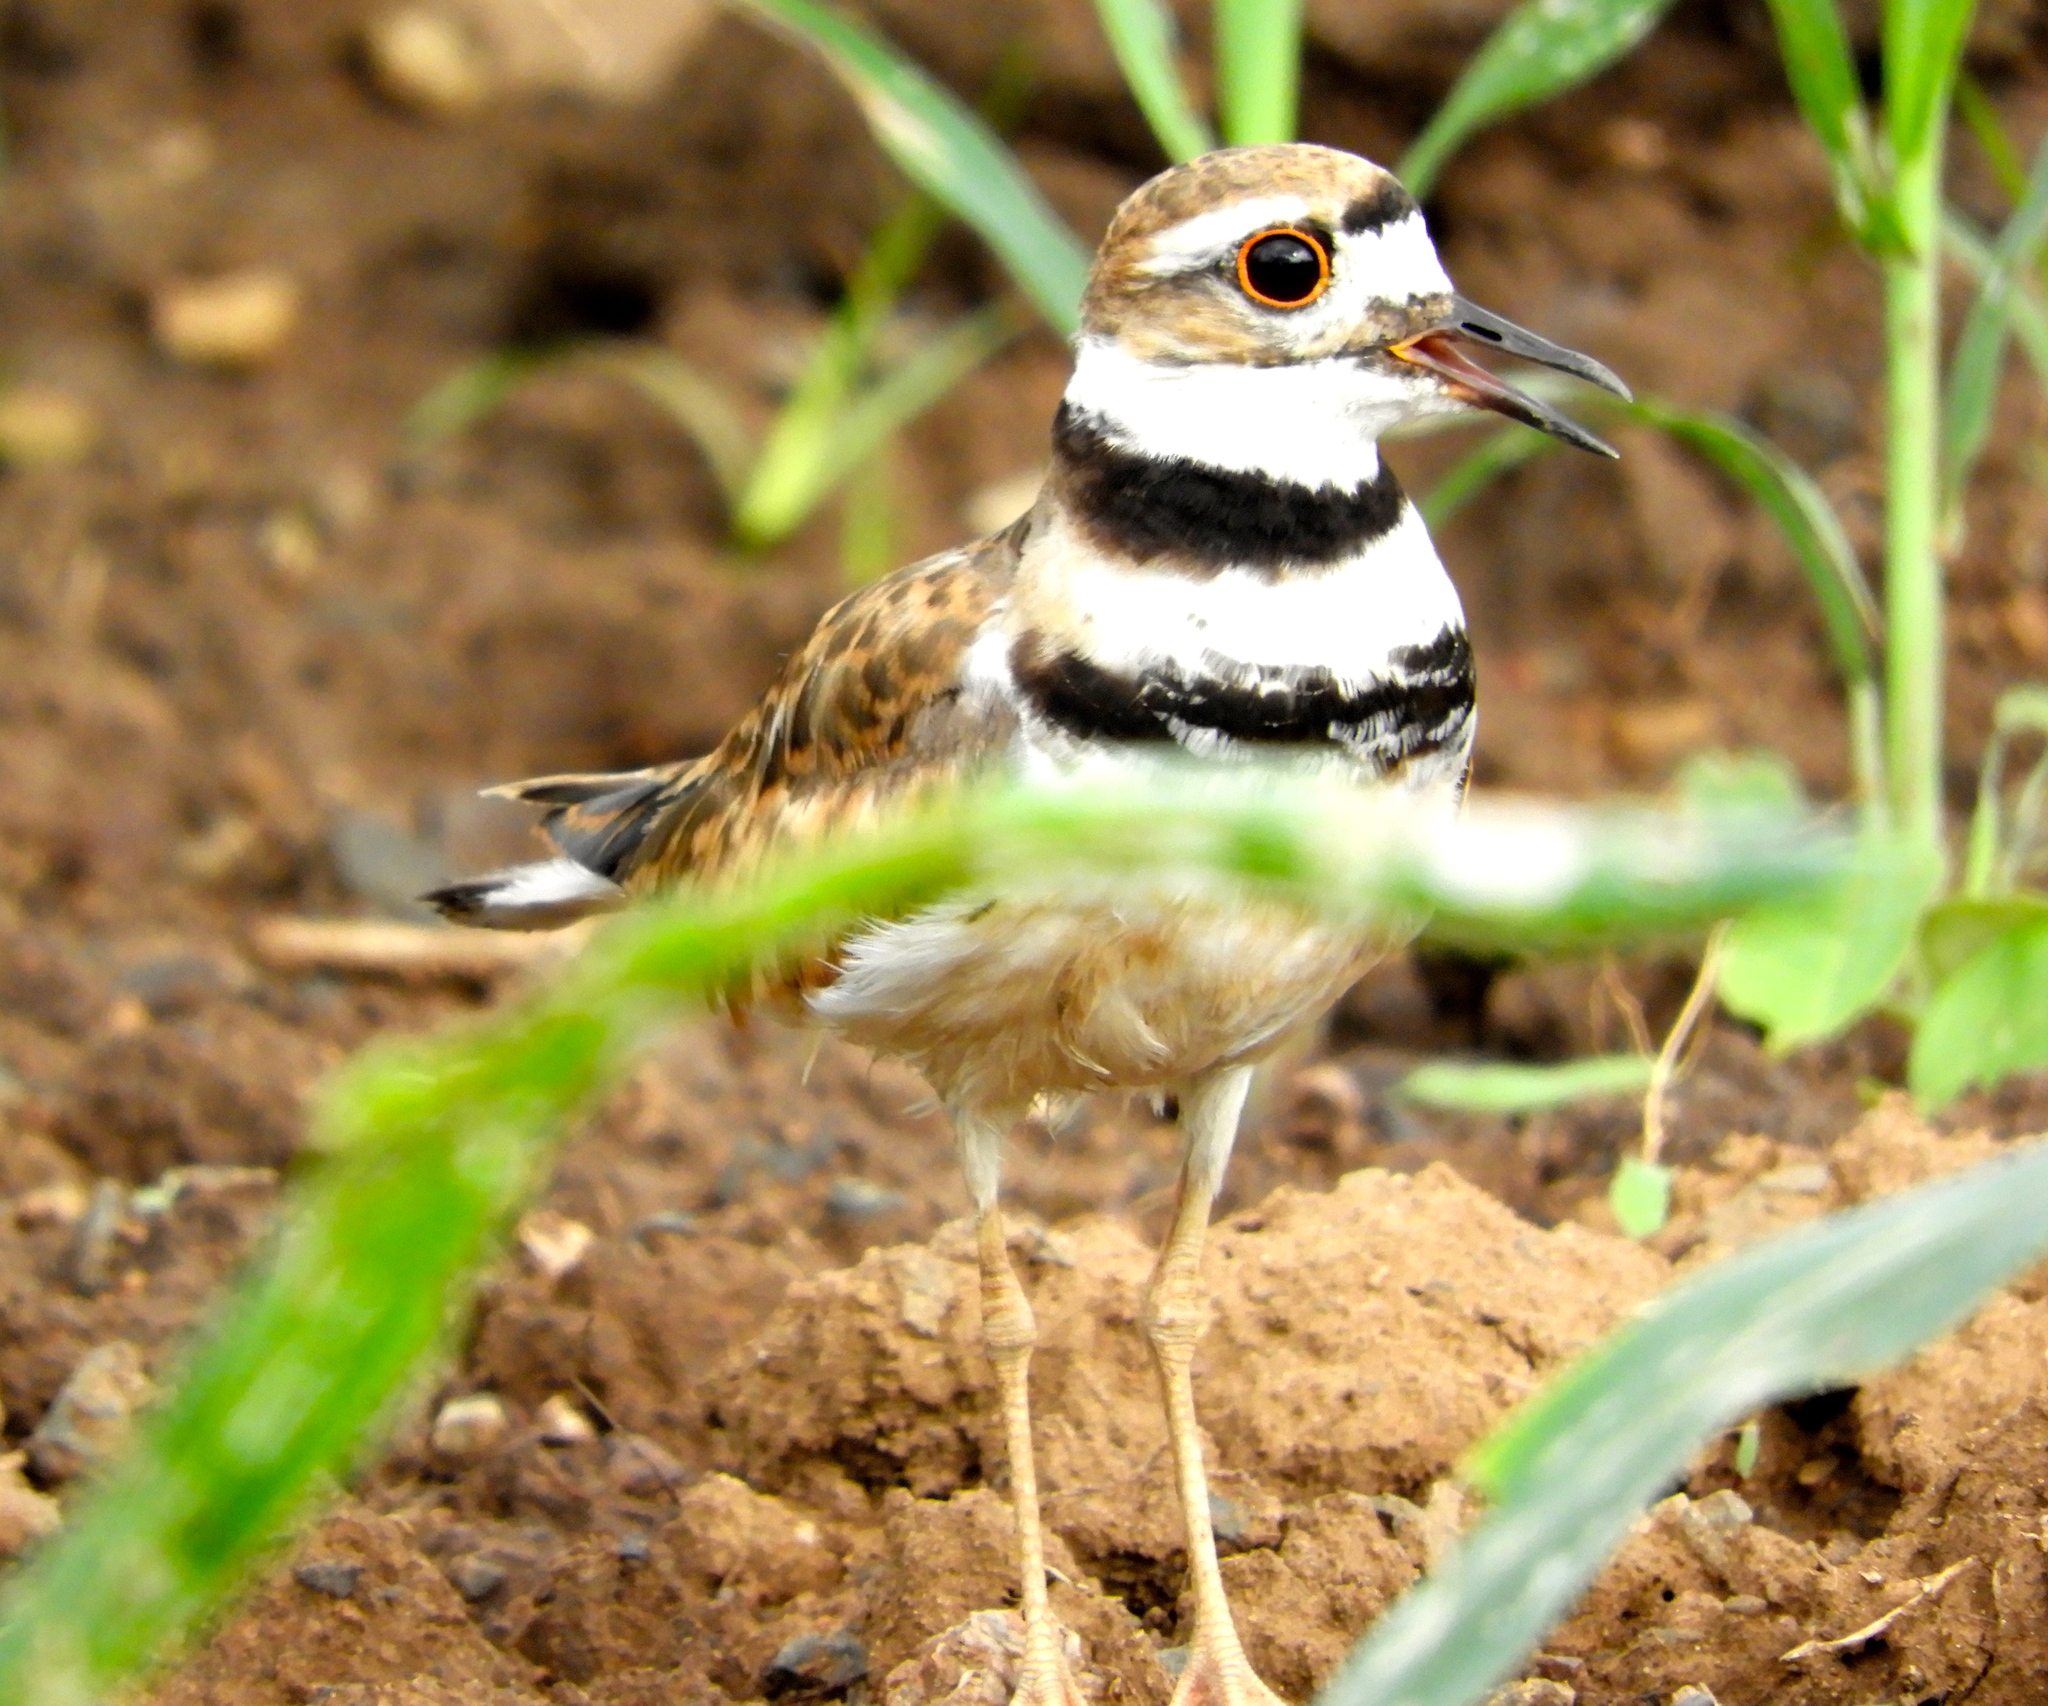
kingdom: Animalia
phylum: Chordata
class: Aves
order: Charadriiformes
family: Charadriidae
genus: Charadrius
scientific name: Charadrius vociferus
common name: Killdeer
